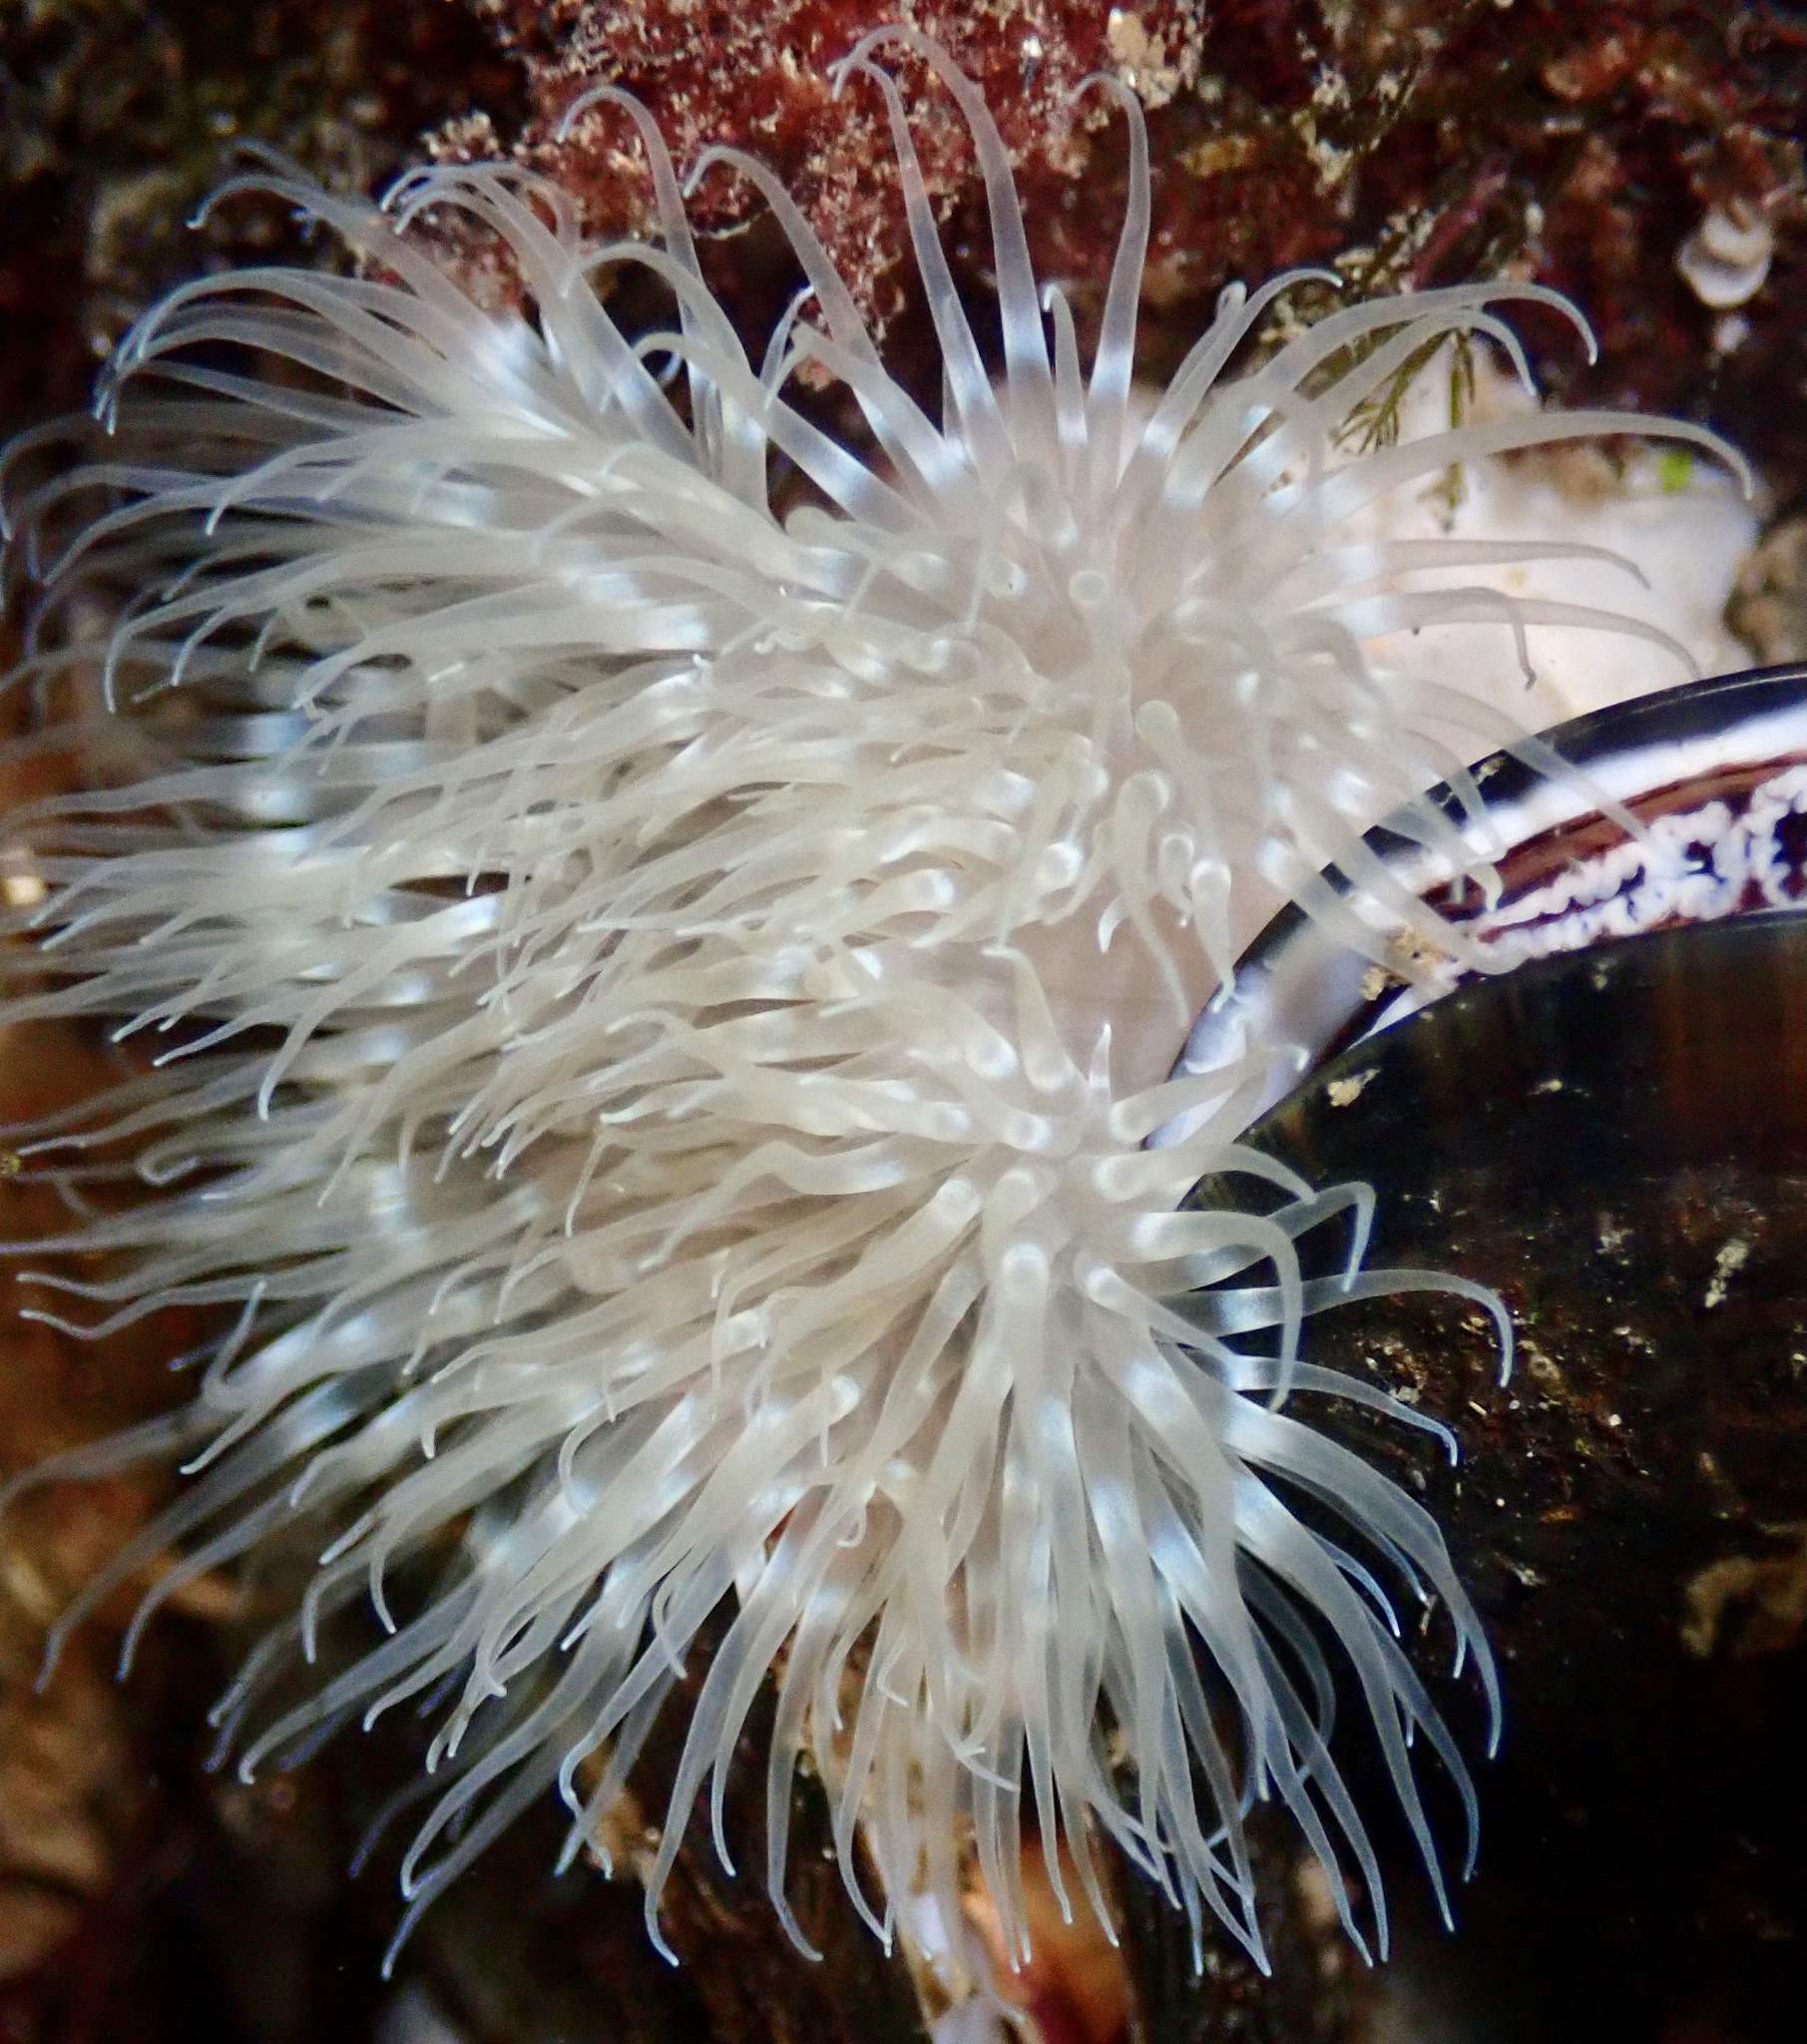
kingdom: Animalia
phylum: Cnidaria
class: Anthozoa
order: Actiniaria
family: Metridiidae
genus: Metridium
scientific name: Metridium senile
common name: Clonal plumose anemone
